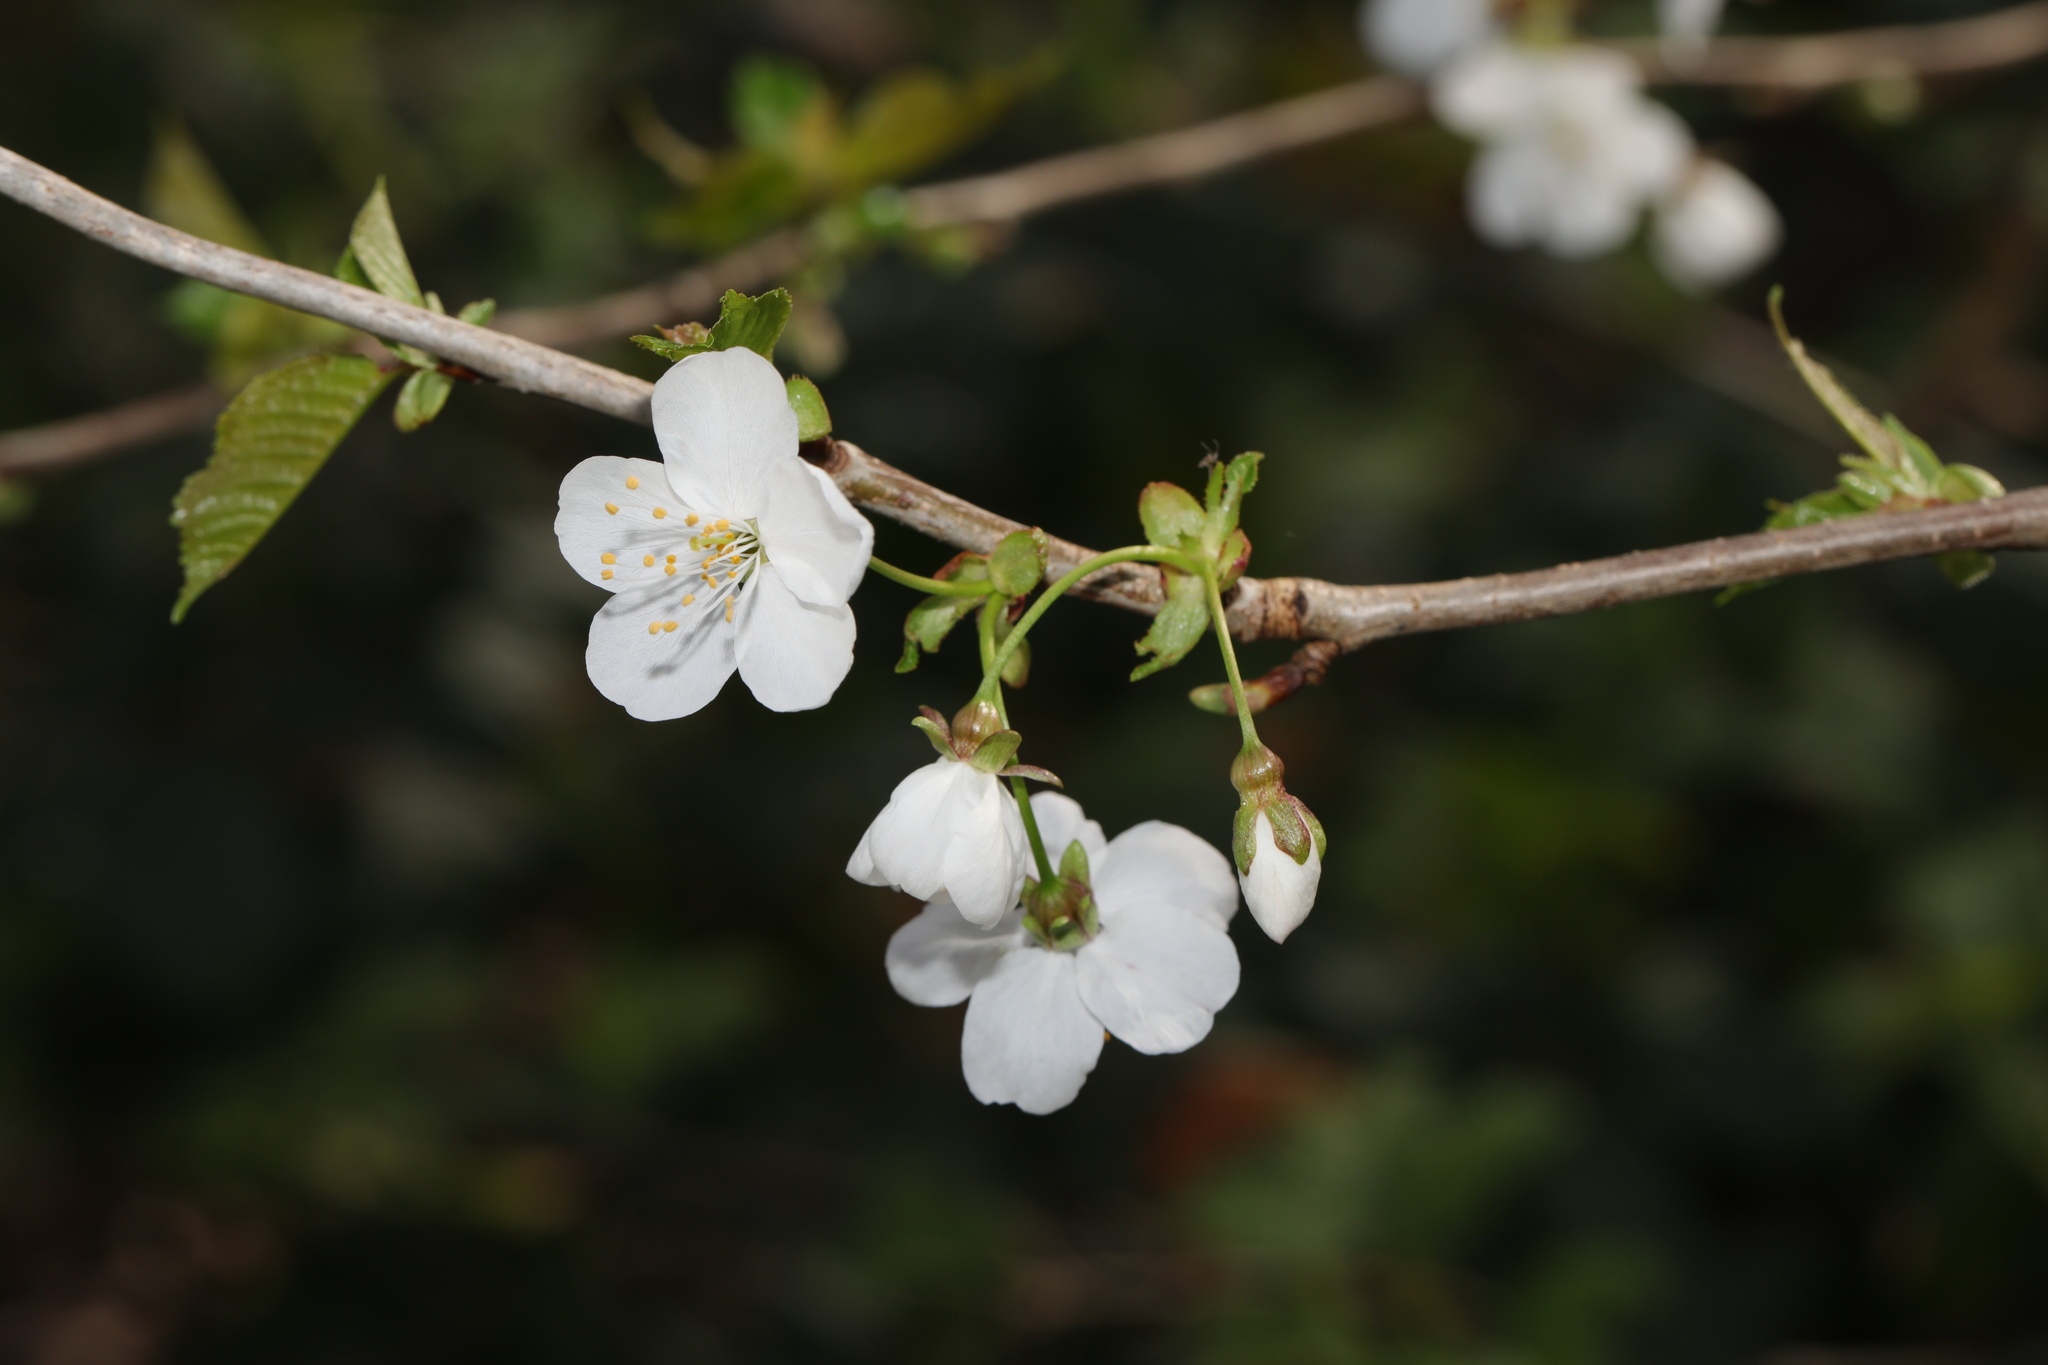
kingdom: Plantae
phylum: Tracheophyta
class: Magnoliopsida
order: Rosales
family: Rosaceae
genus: Prunus
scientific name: Prunus avium
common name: Sweet cherry
